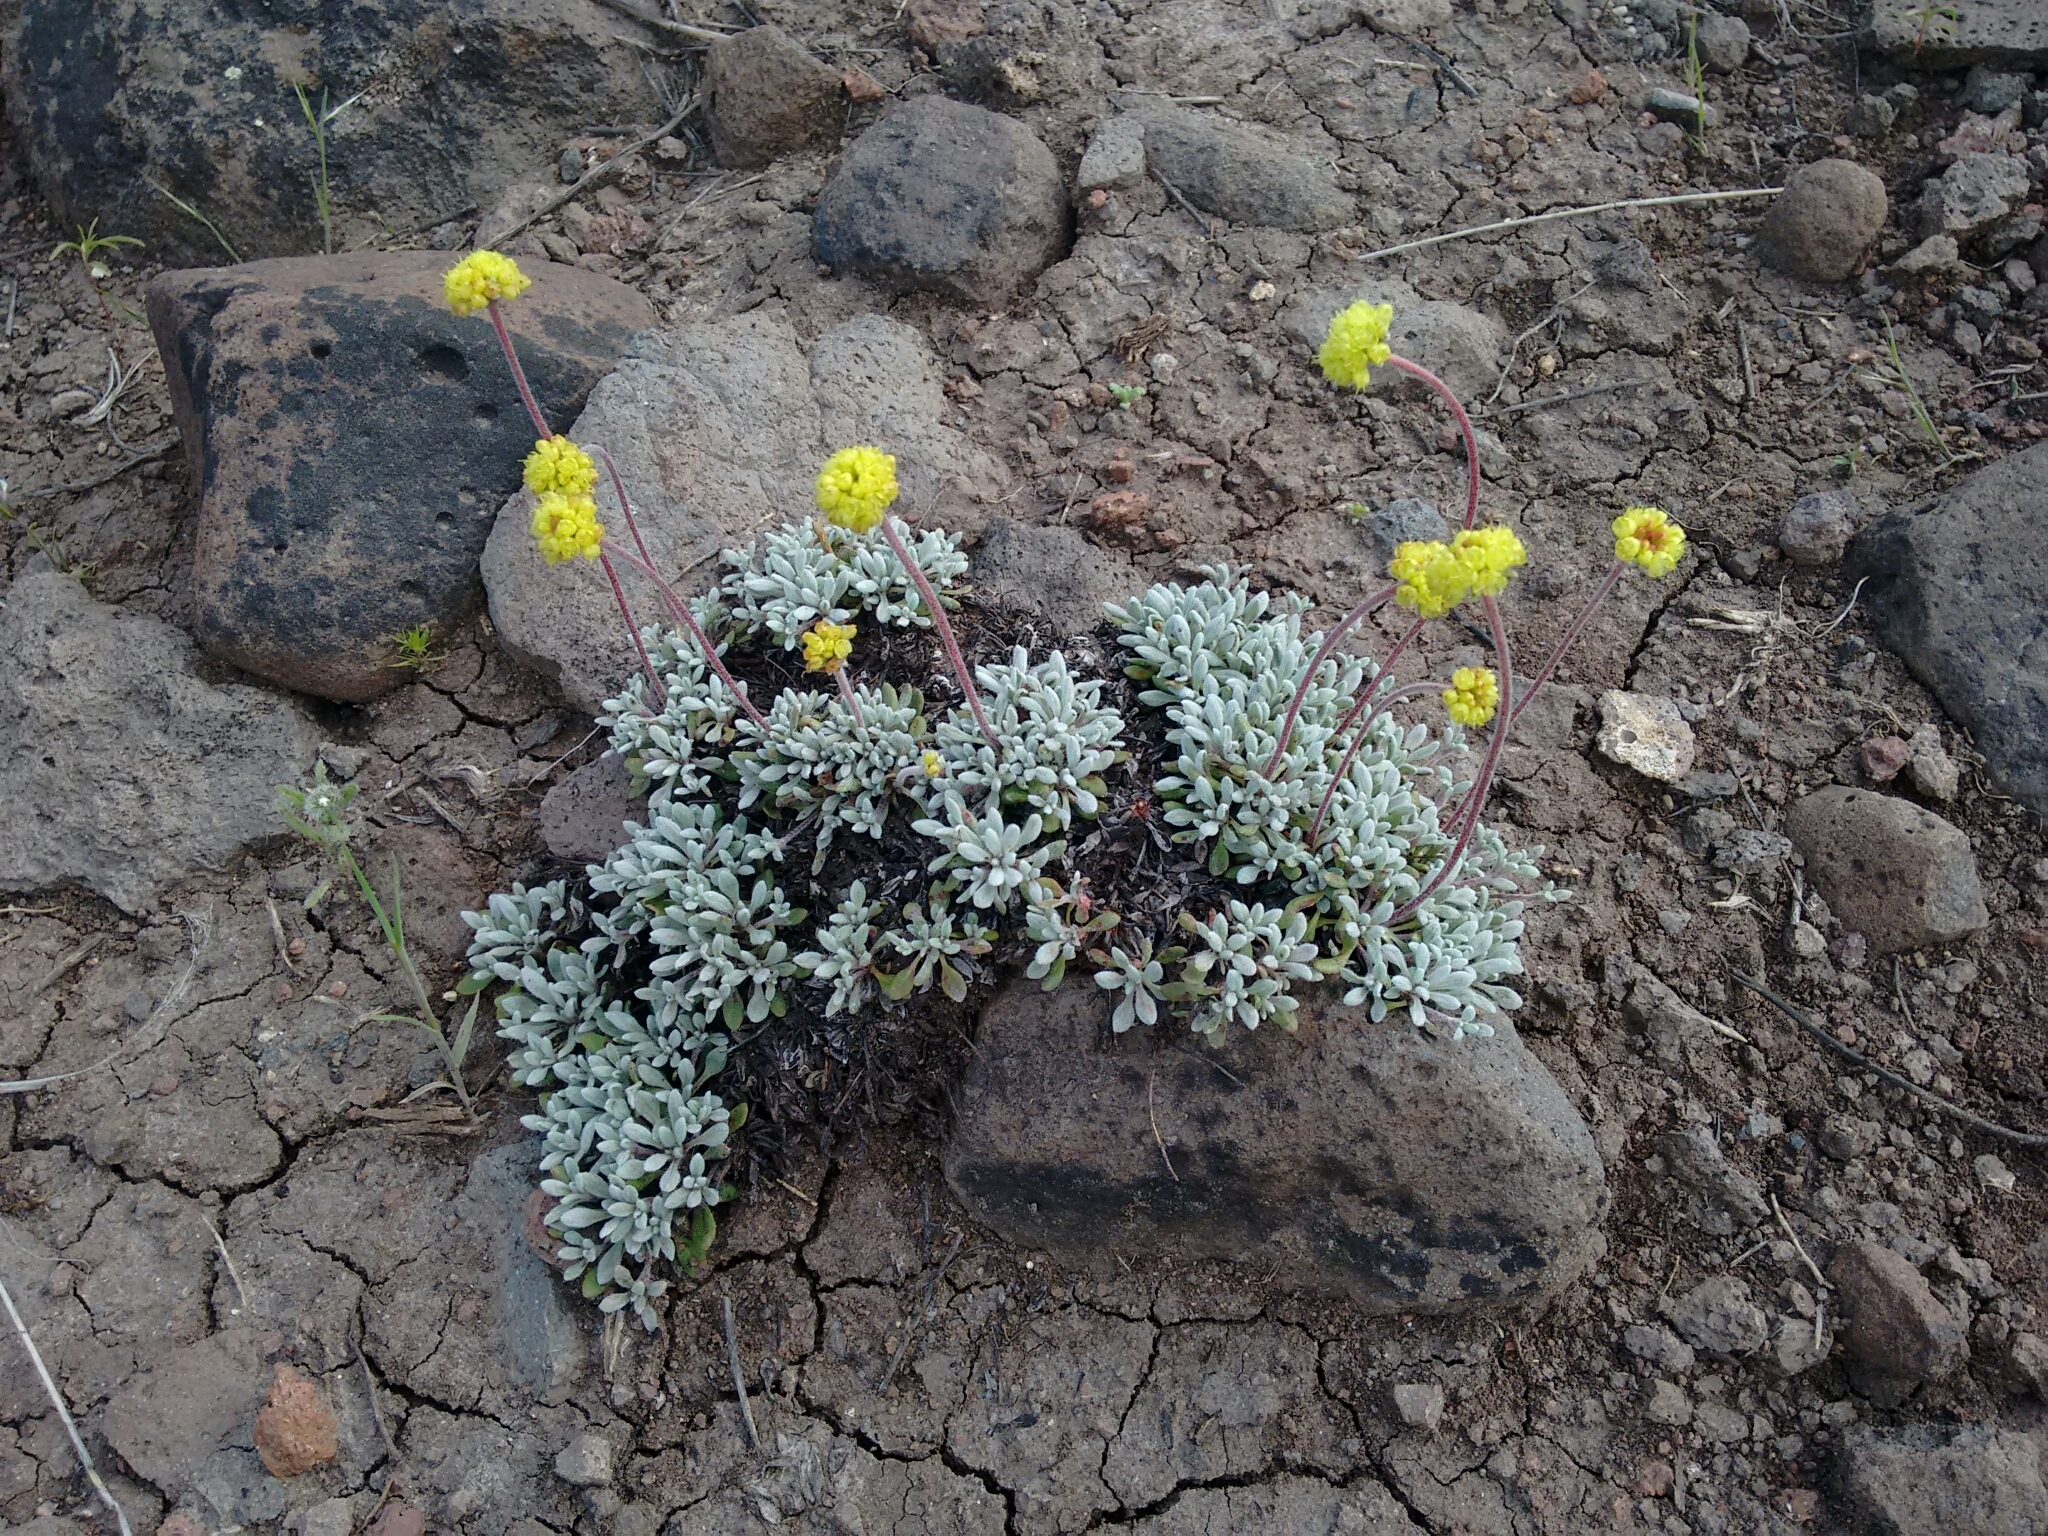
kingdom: Plantae
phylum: Tracheophyta
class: Magnoliopsida
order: Caryophyllales
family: Polygonaceae
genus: Eriogonum
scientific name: Eriogonum caespitosum
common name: Matted wild buckwheat
